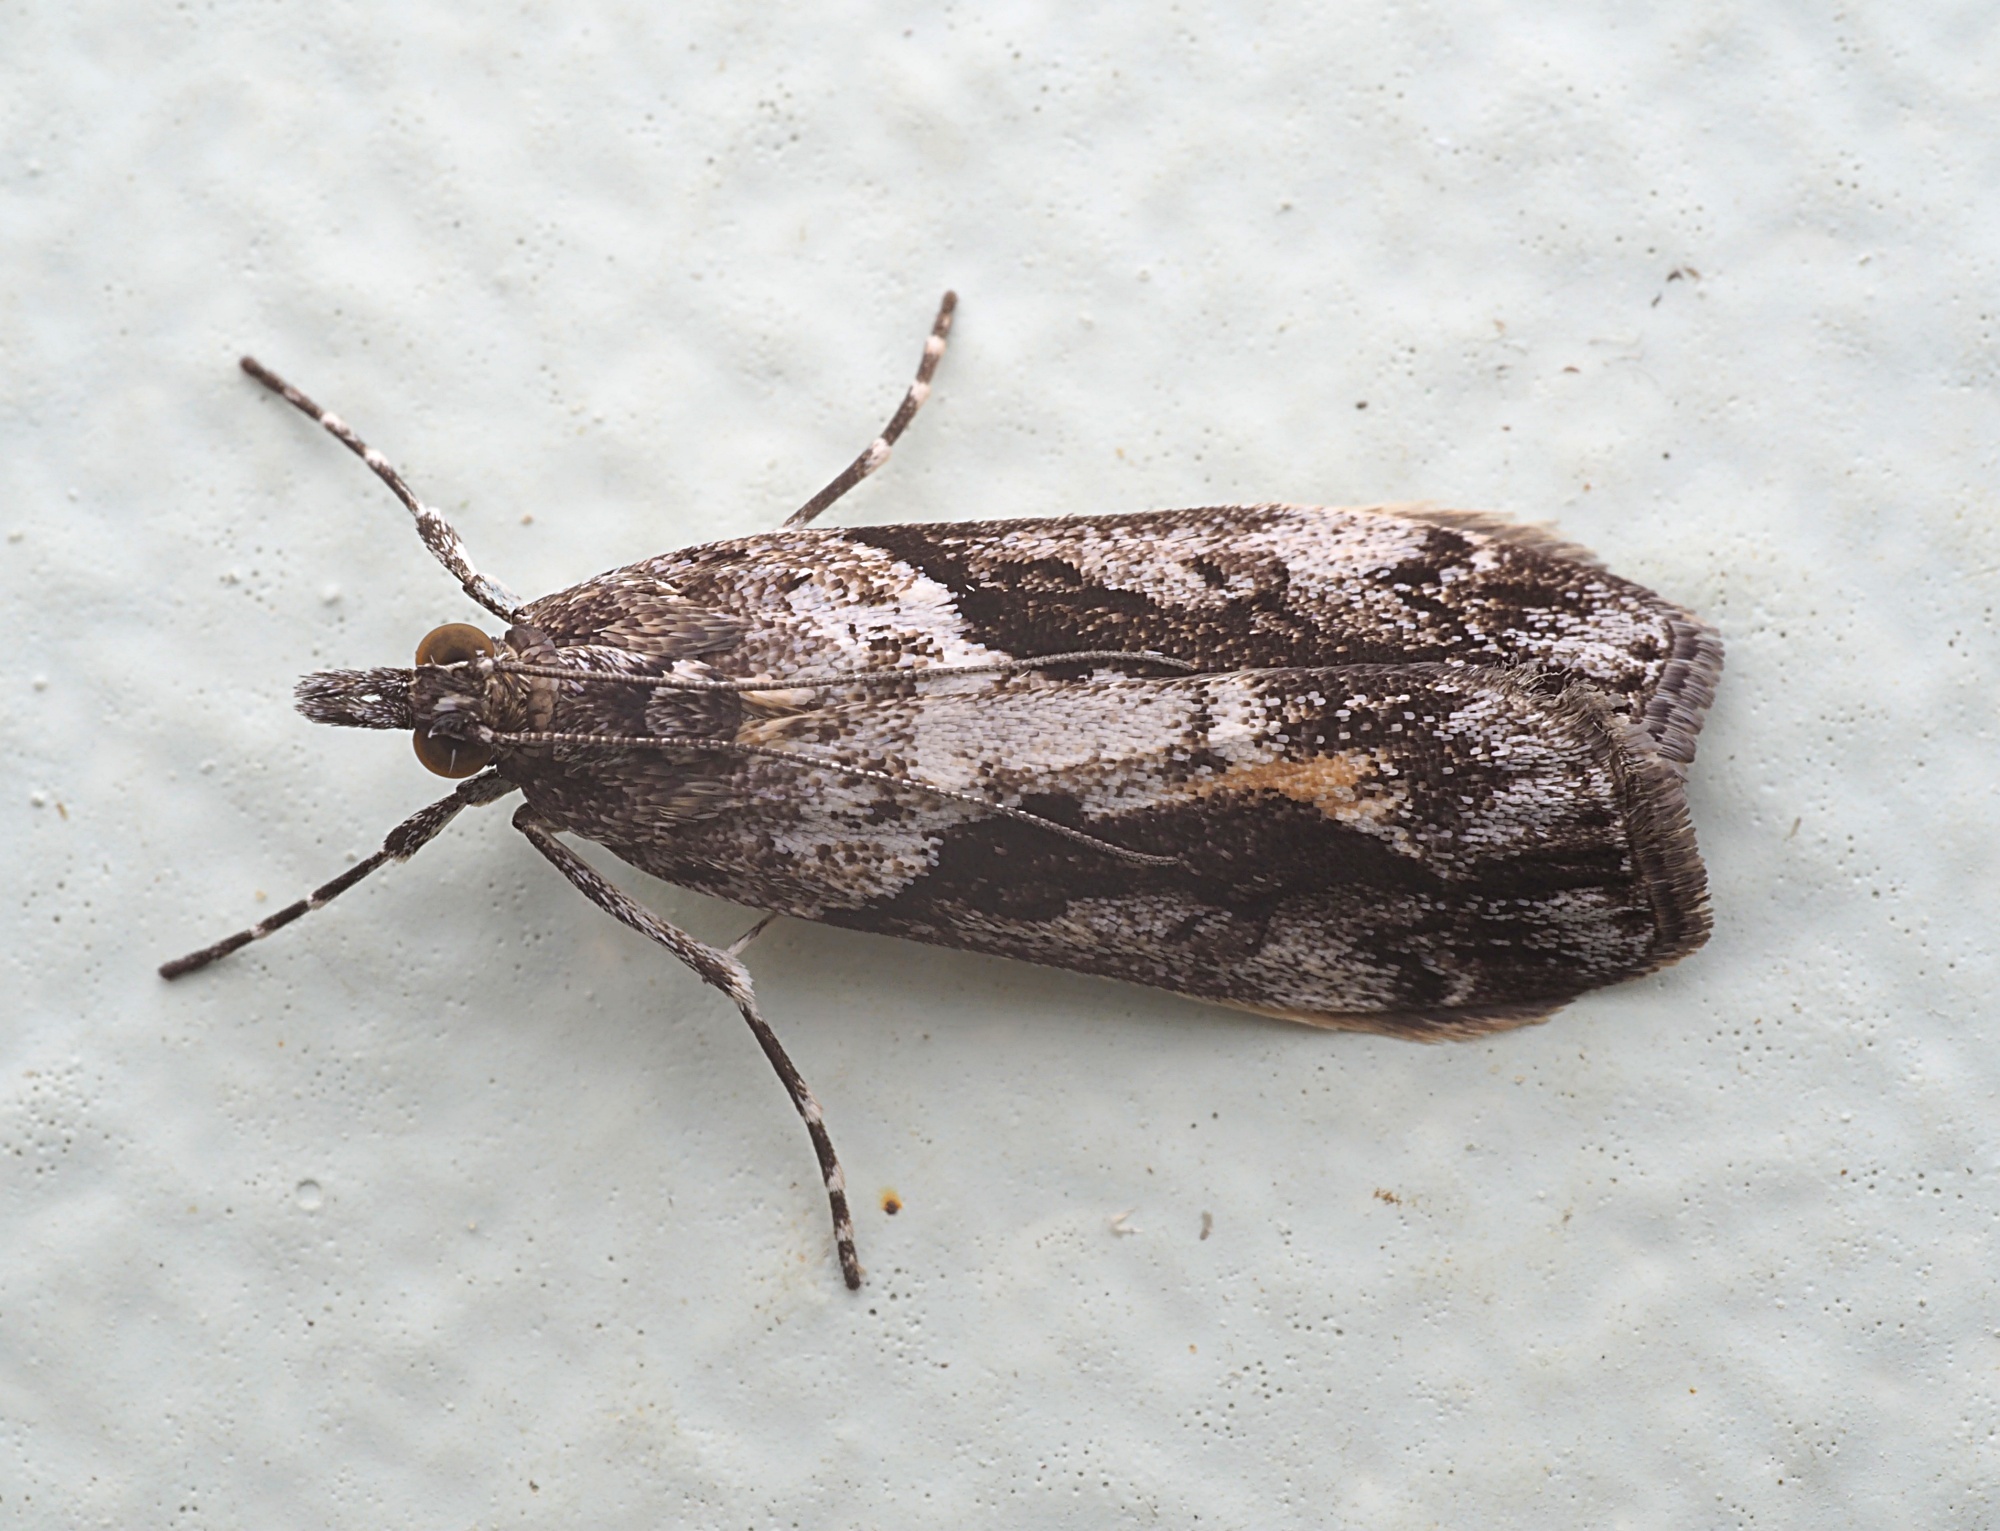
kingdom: Animalia
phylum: Arthropoda
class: Insecta
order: Lepidoptera
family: Crambidae
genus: Eudonia
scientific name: Eudonia submarginalis
